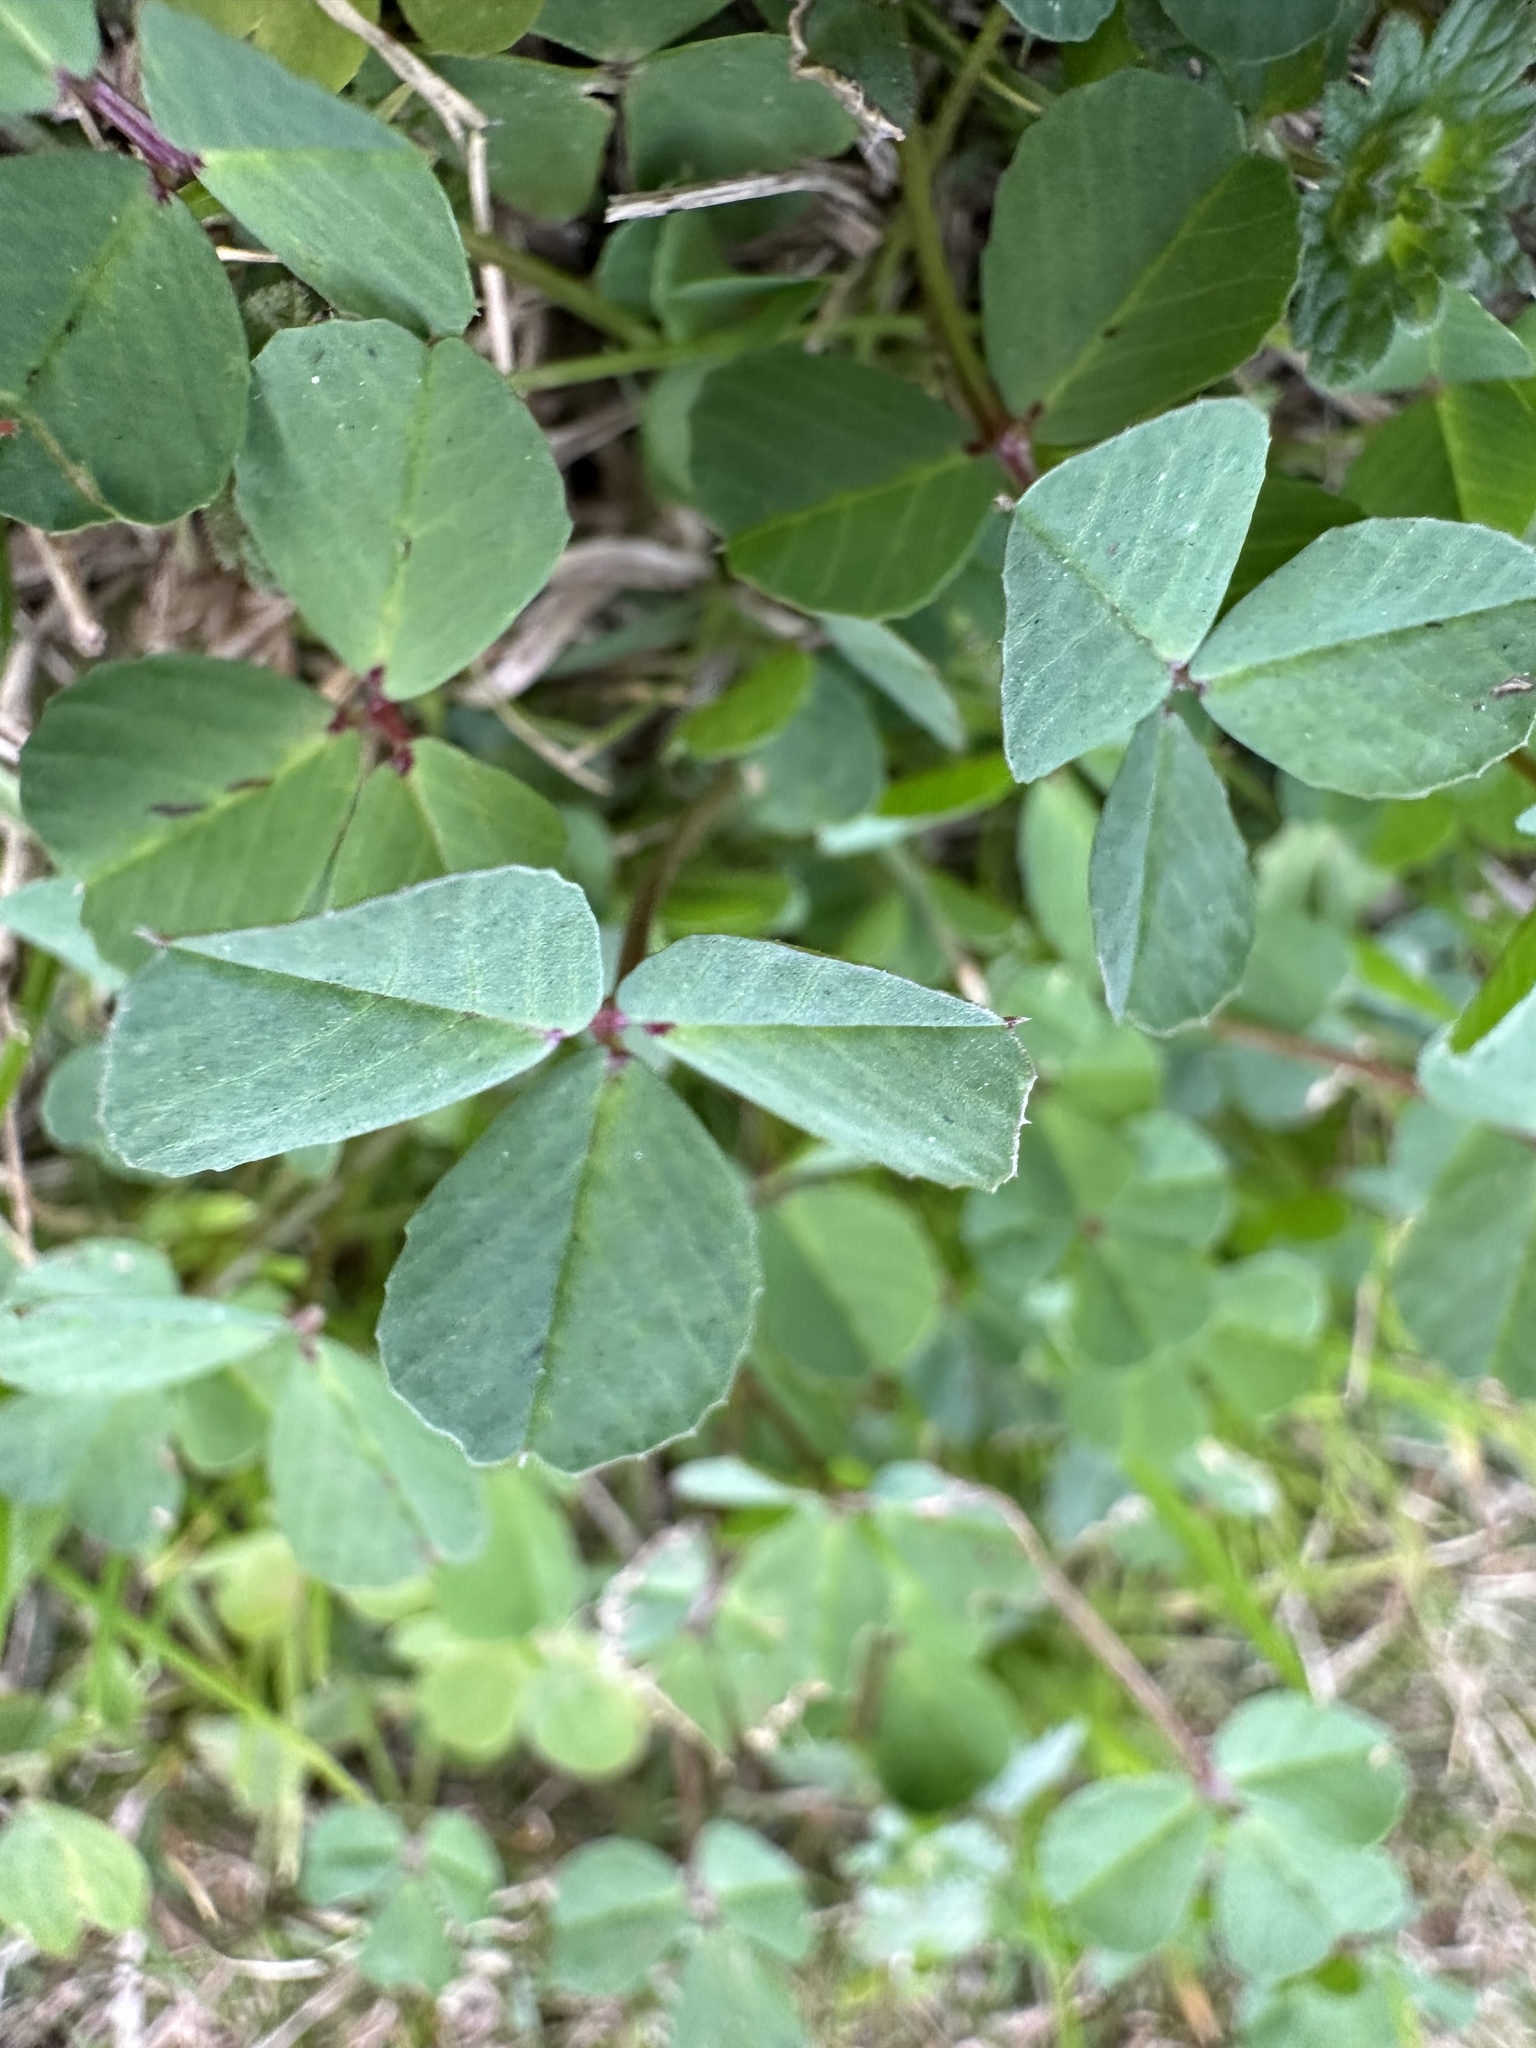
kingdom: Plantae
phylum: Tracheophyta
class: Magnoliopsida
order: Fabales
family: Fabaceae
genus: Medicago
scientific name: Medicago polymorpha
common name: Burclover
